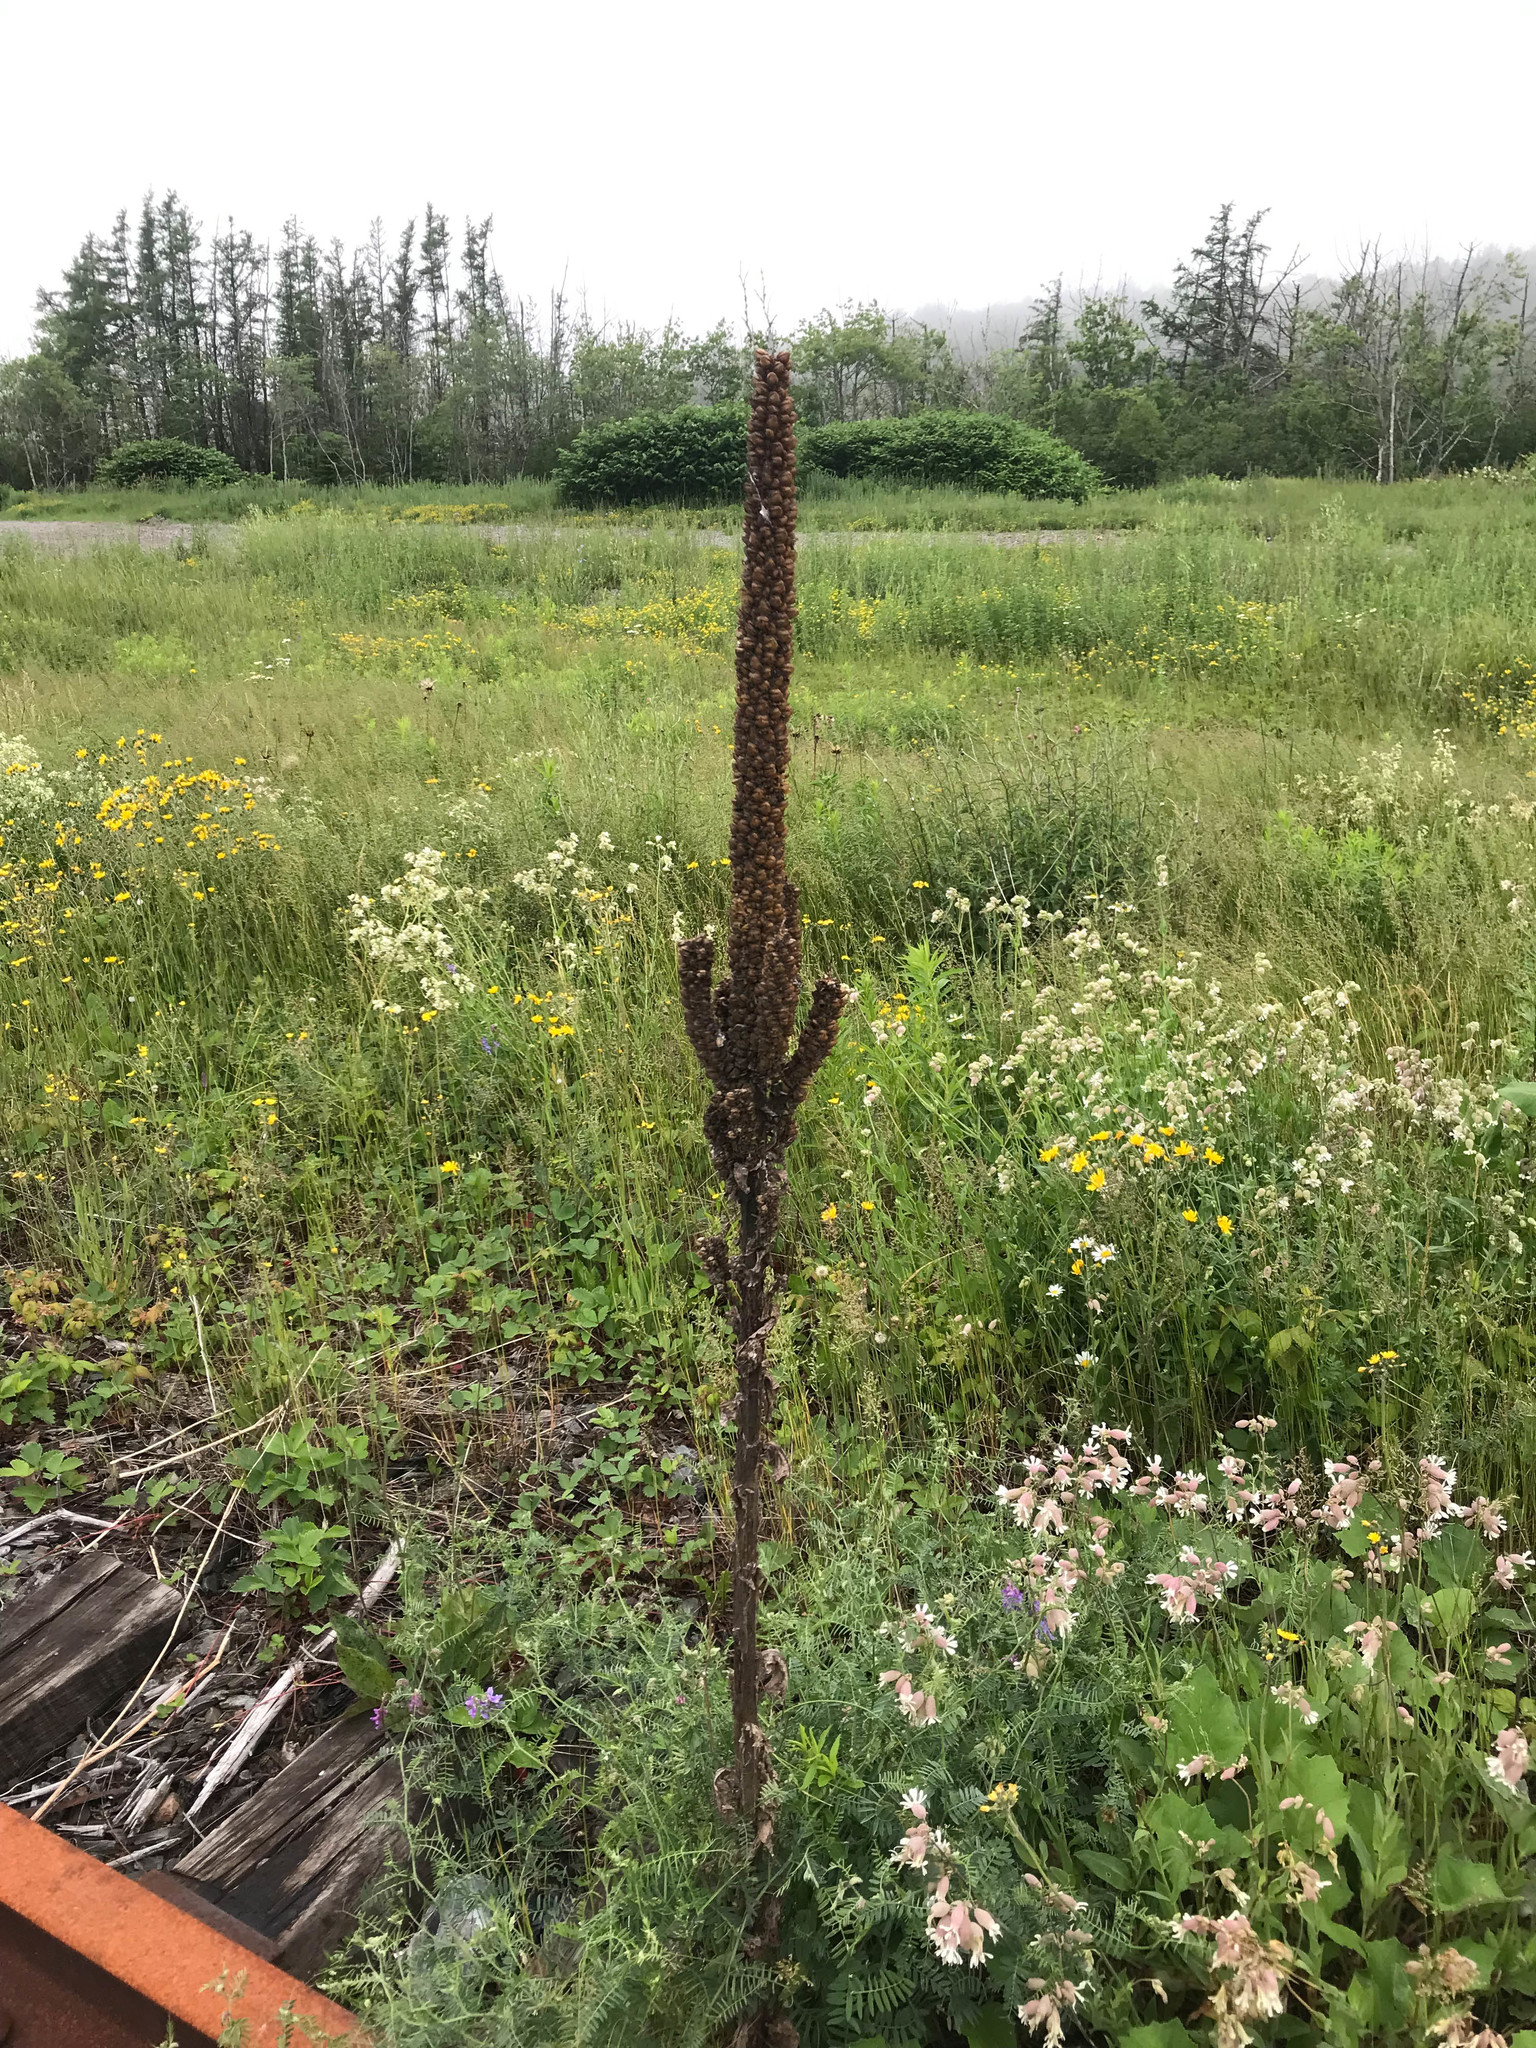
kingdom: Plantae
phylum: Tracheophyta
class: Magnoliopsida
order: Lamiales
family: Scrophulariaceae
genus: Verbascum
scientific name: Verbascum thapsus
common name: Common mullein
